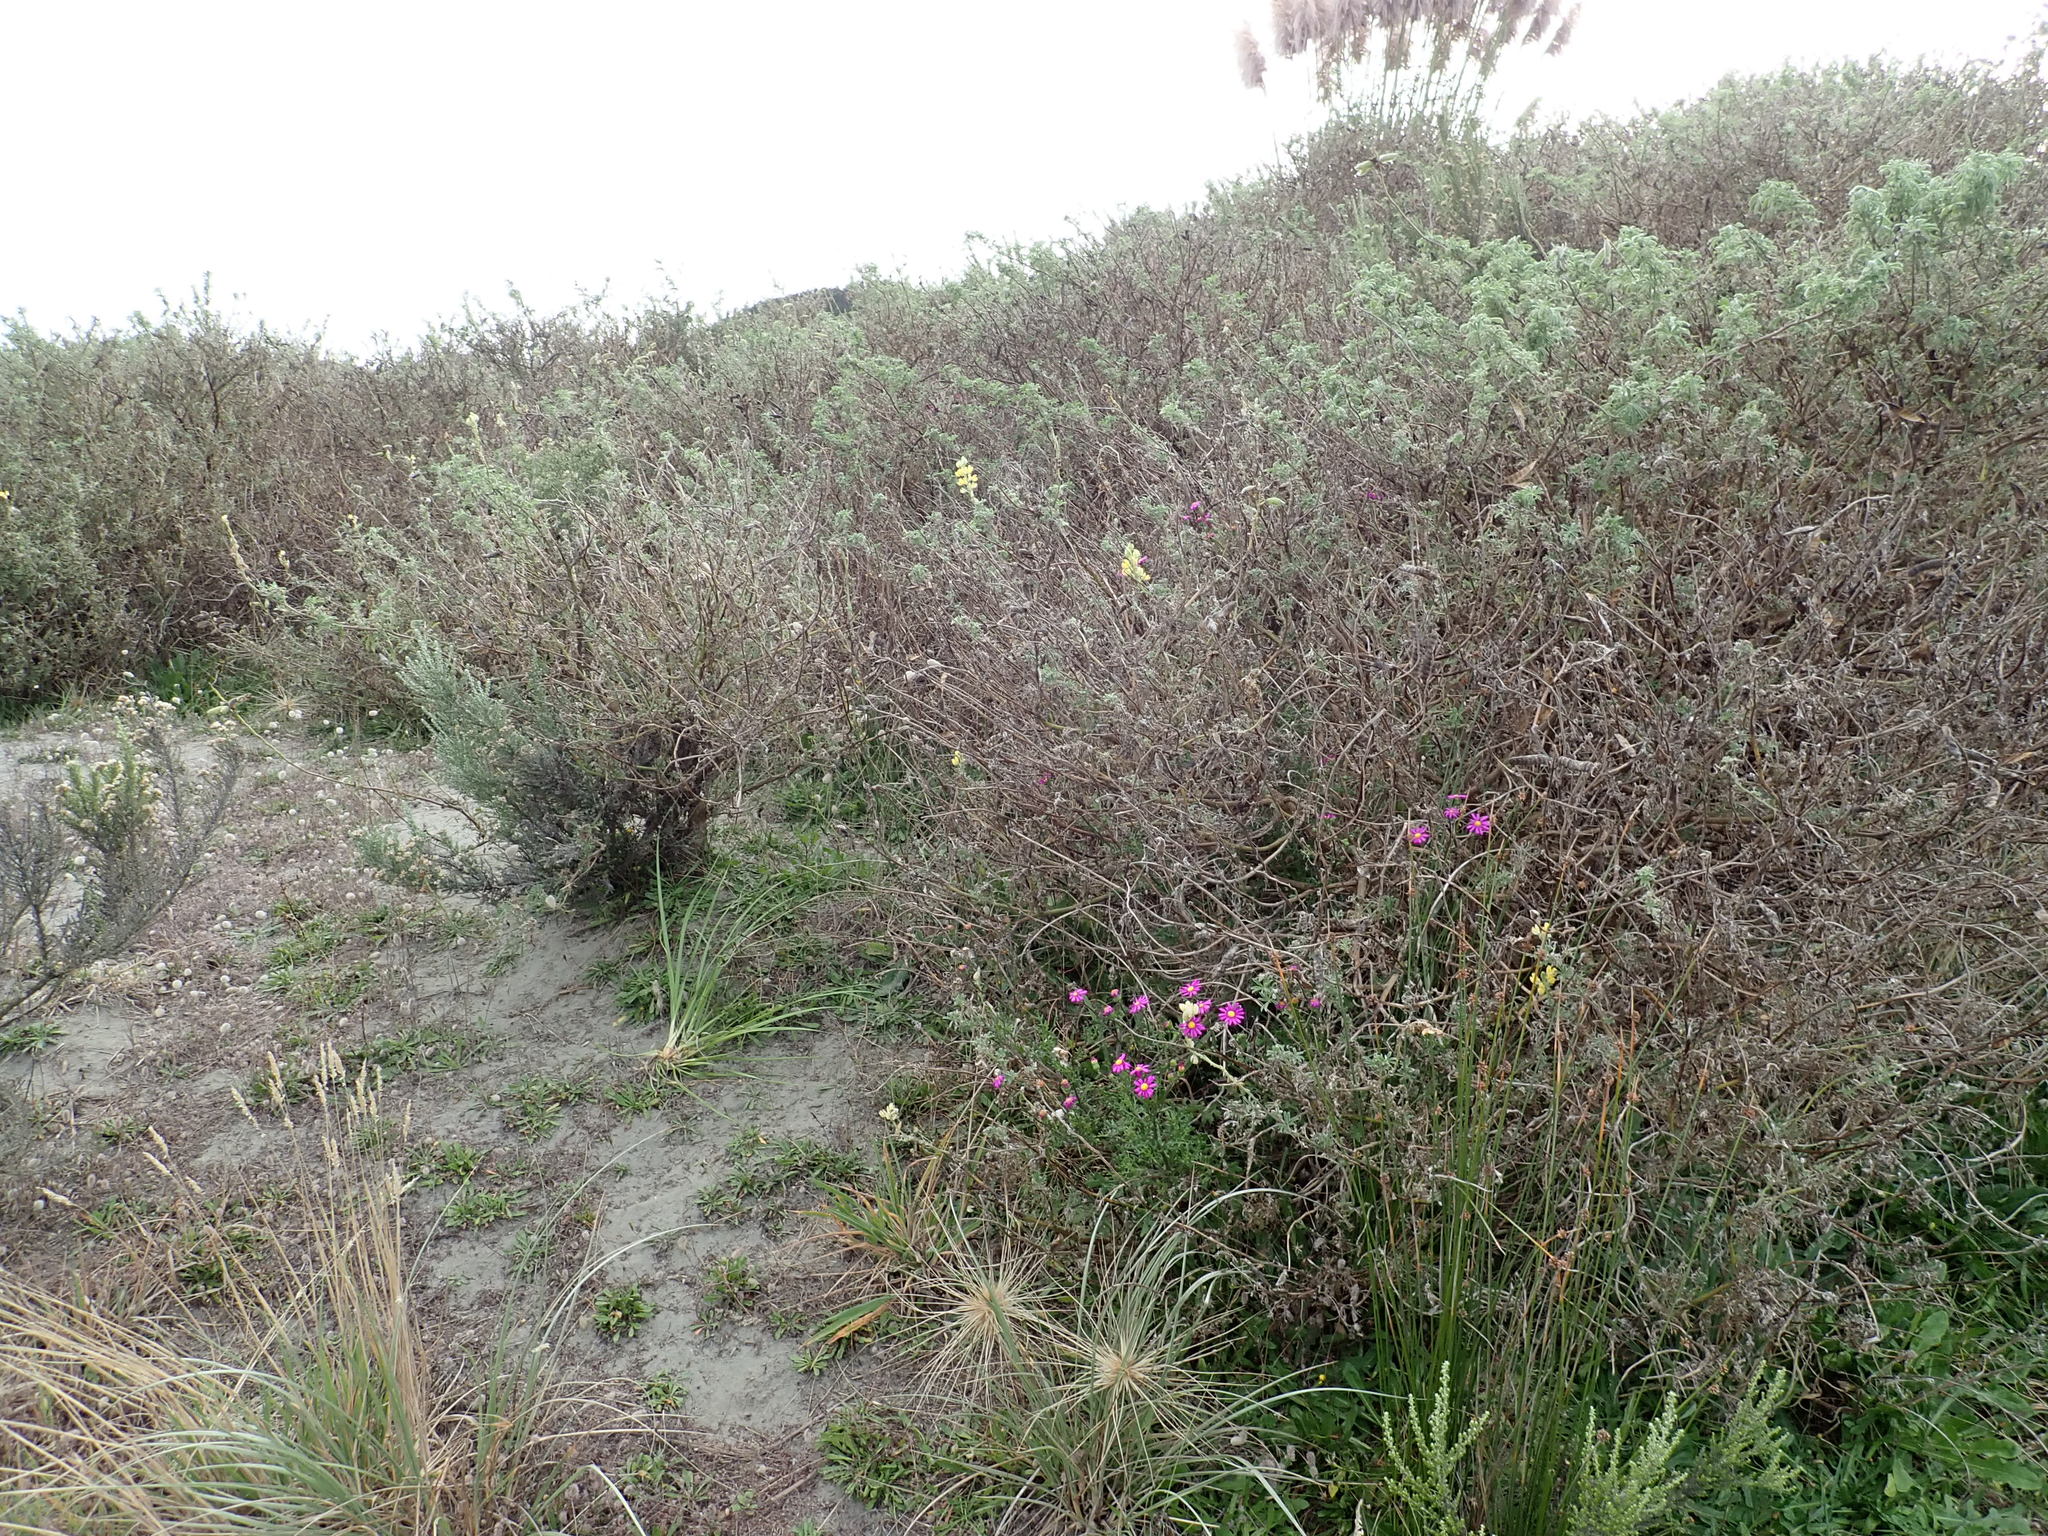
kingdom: Plantae
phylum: Tracheophyta
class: Magnoliopsida
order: Fabales
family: Fabaceae
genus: Lupinus
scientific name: Lupinus arboreus
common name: Yellow bush lupine
